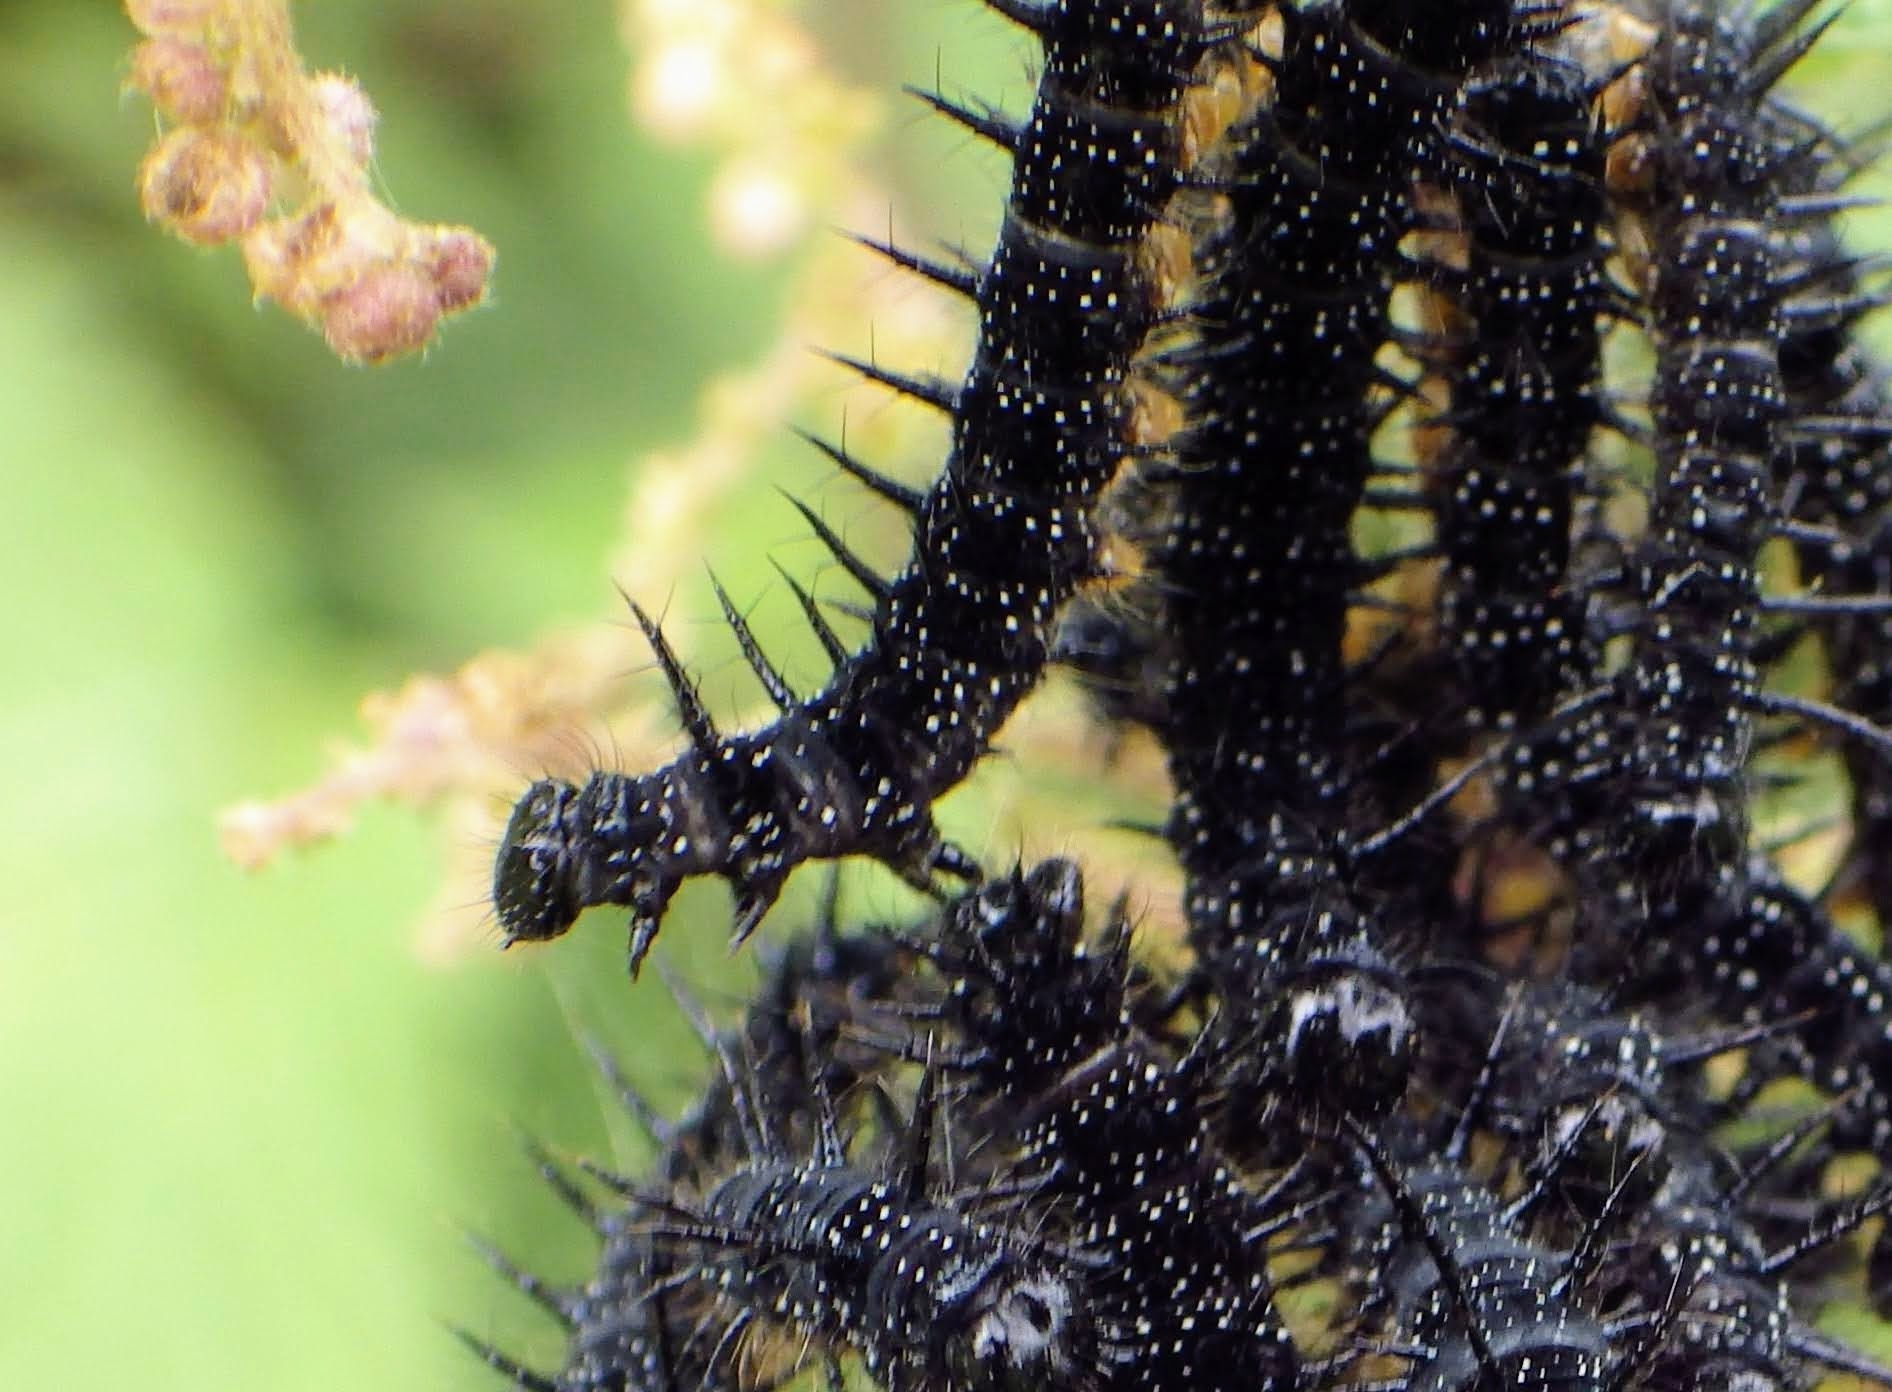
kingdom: Animalia
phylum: Arthropoda
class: Insecta
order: Lepidoptera
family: Nymphalidae
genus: Aglais
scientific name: Aglais io
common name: Peacock
